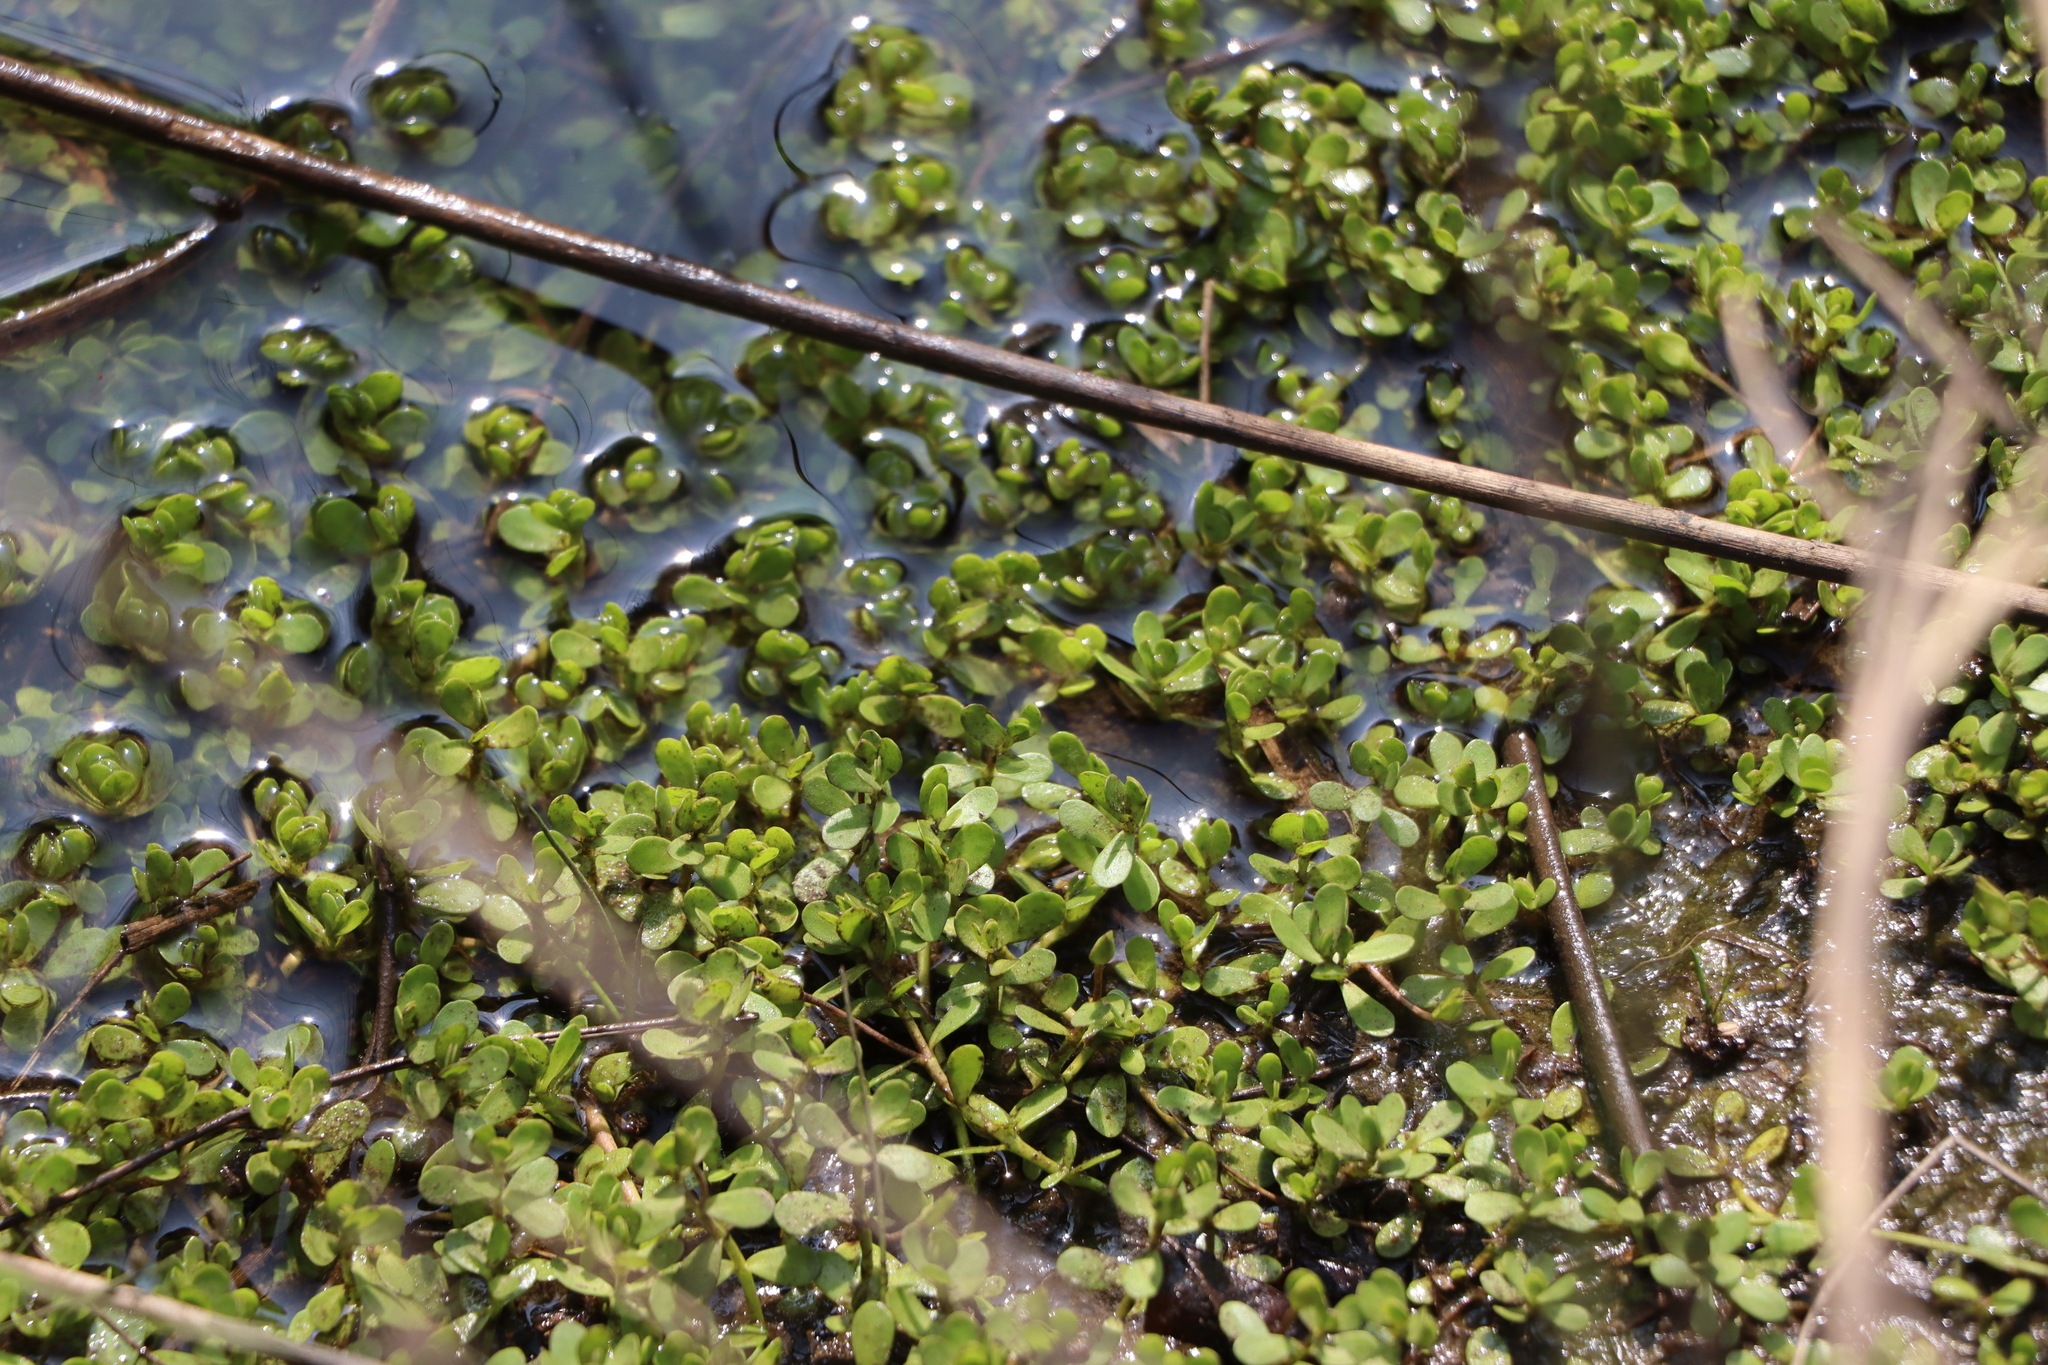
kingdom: Plantae
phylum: Tracheophyta
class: Magnoliopsida
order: Lamiales
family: Plantaginaceae
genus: Bacopa
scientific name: Bacopa monnieri
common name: Indian-pennywort
